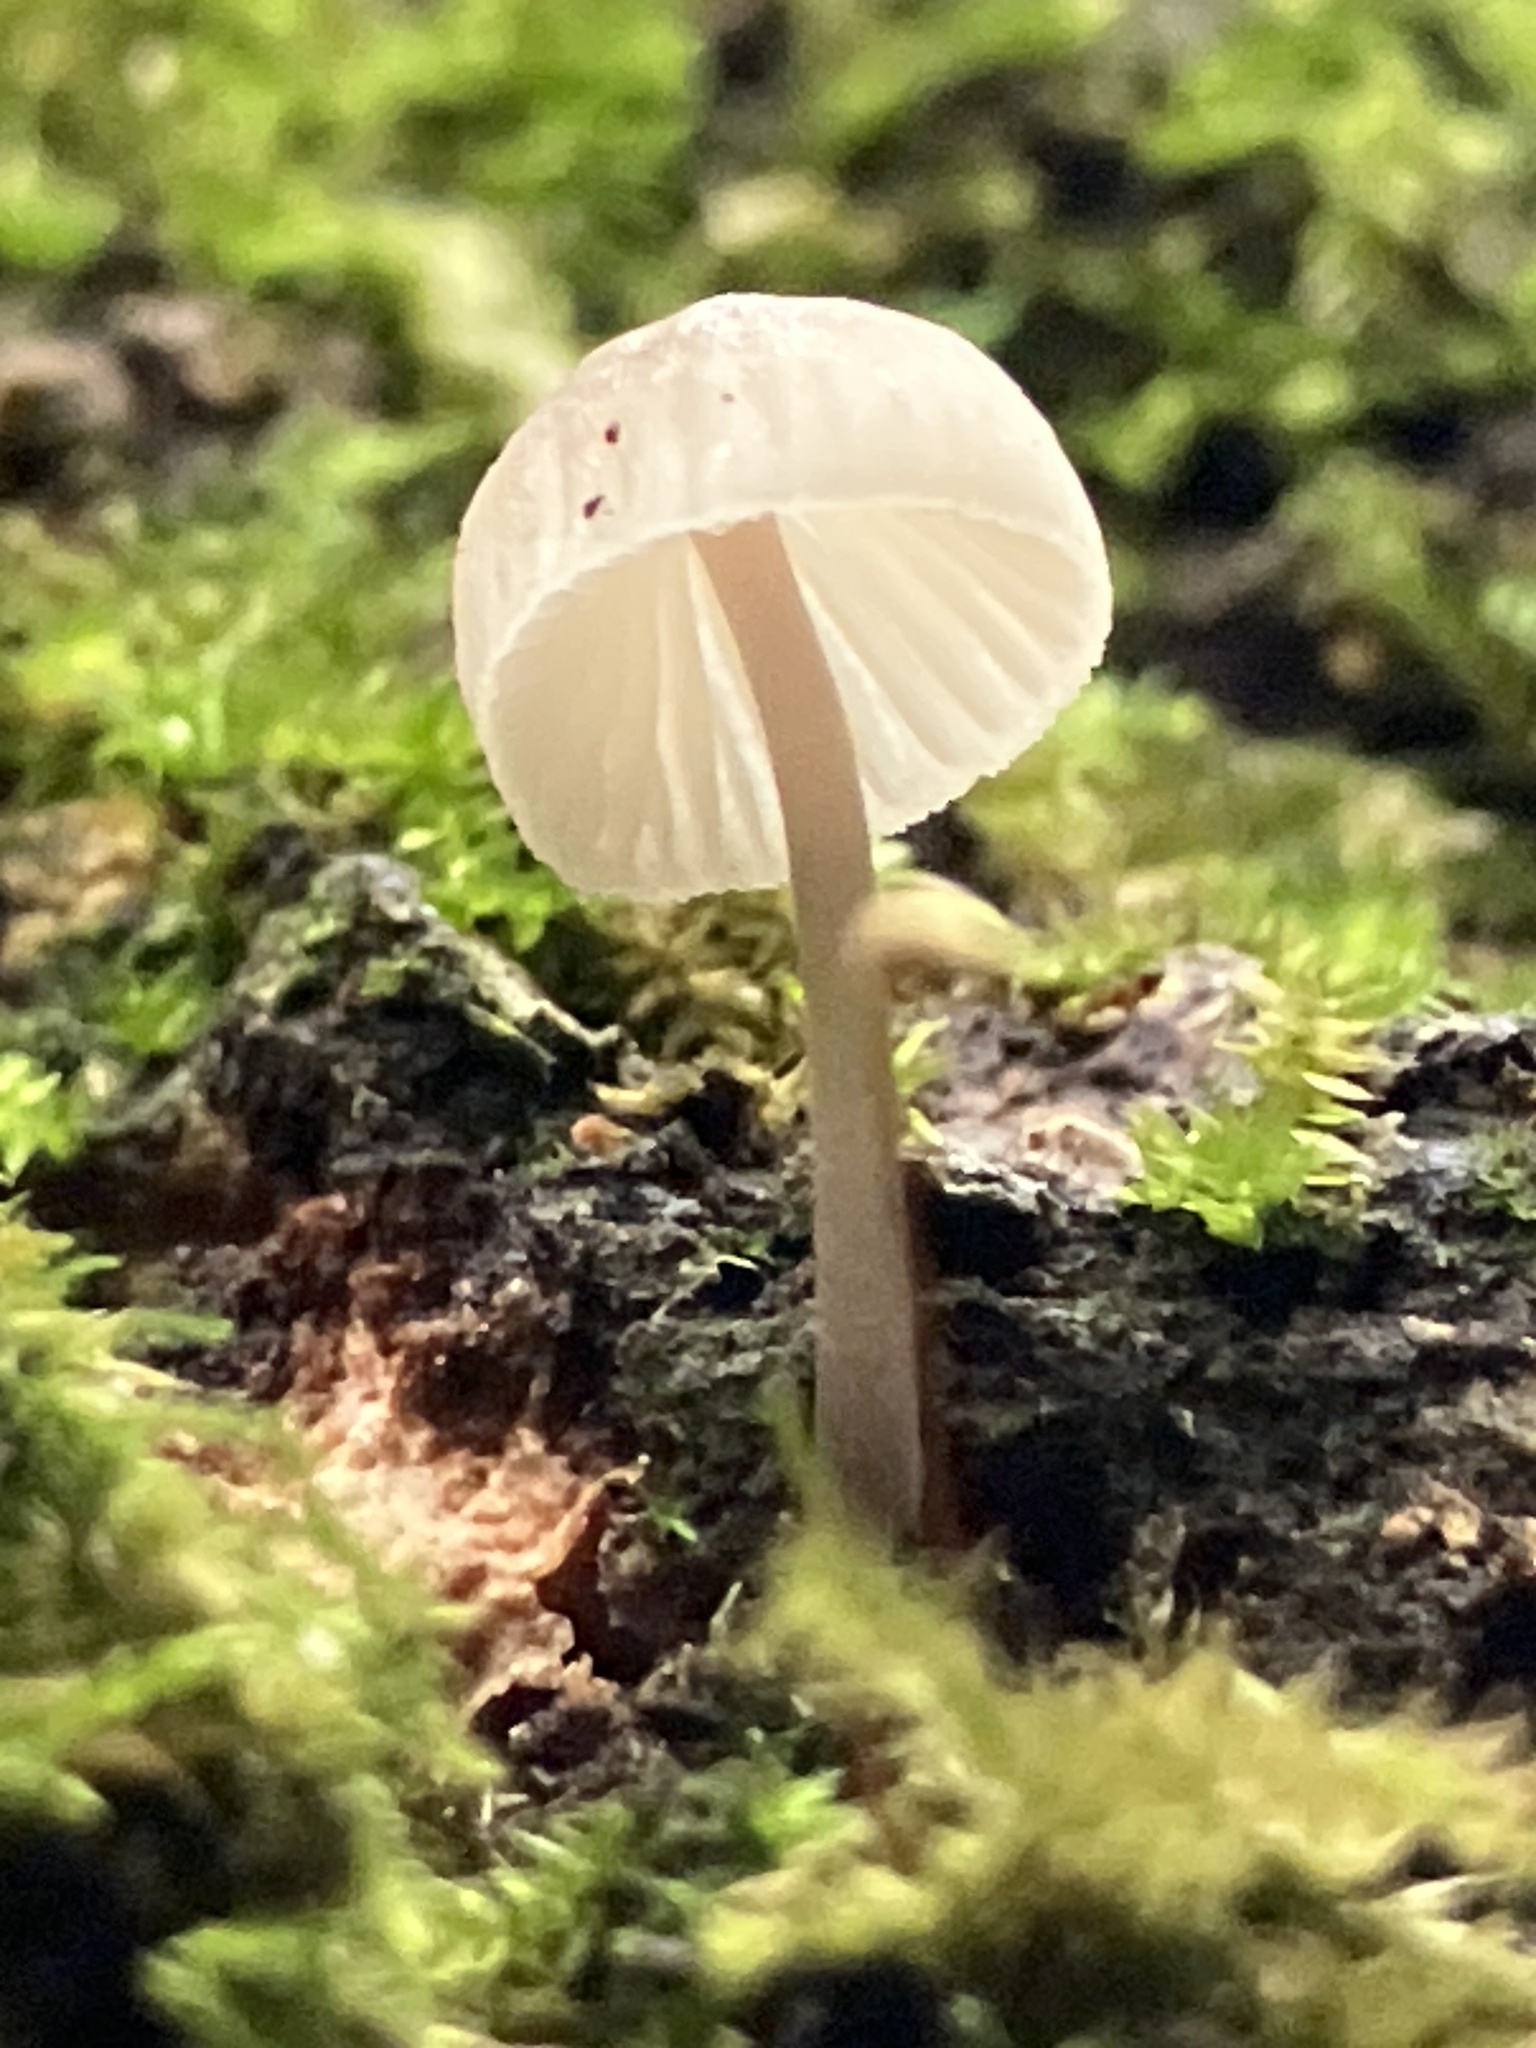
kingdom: Fungi
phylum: Basidiomycota
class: Agaricomycetes
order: Agaricales
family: Mycenaceae
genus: Mycena
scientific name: Mycena pseudocorticola
